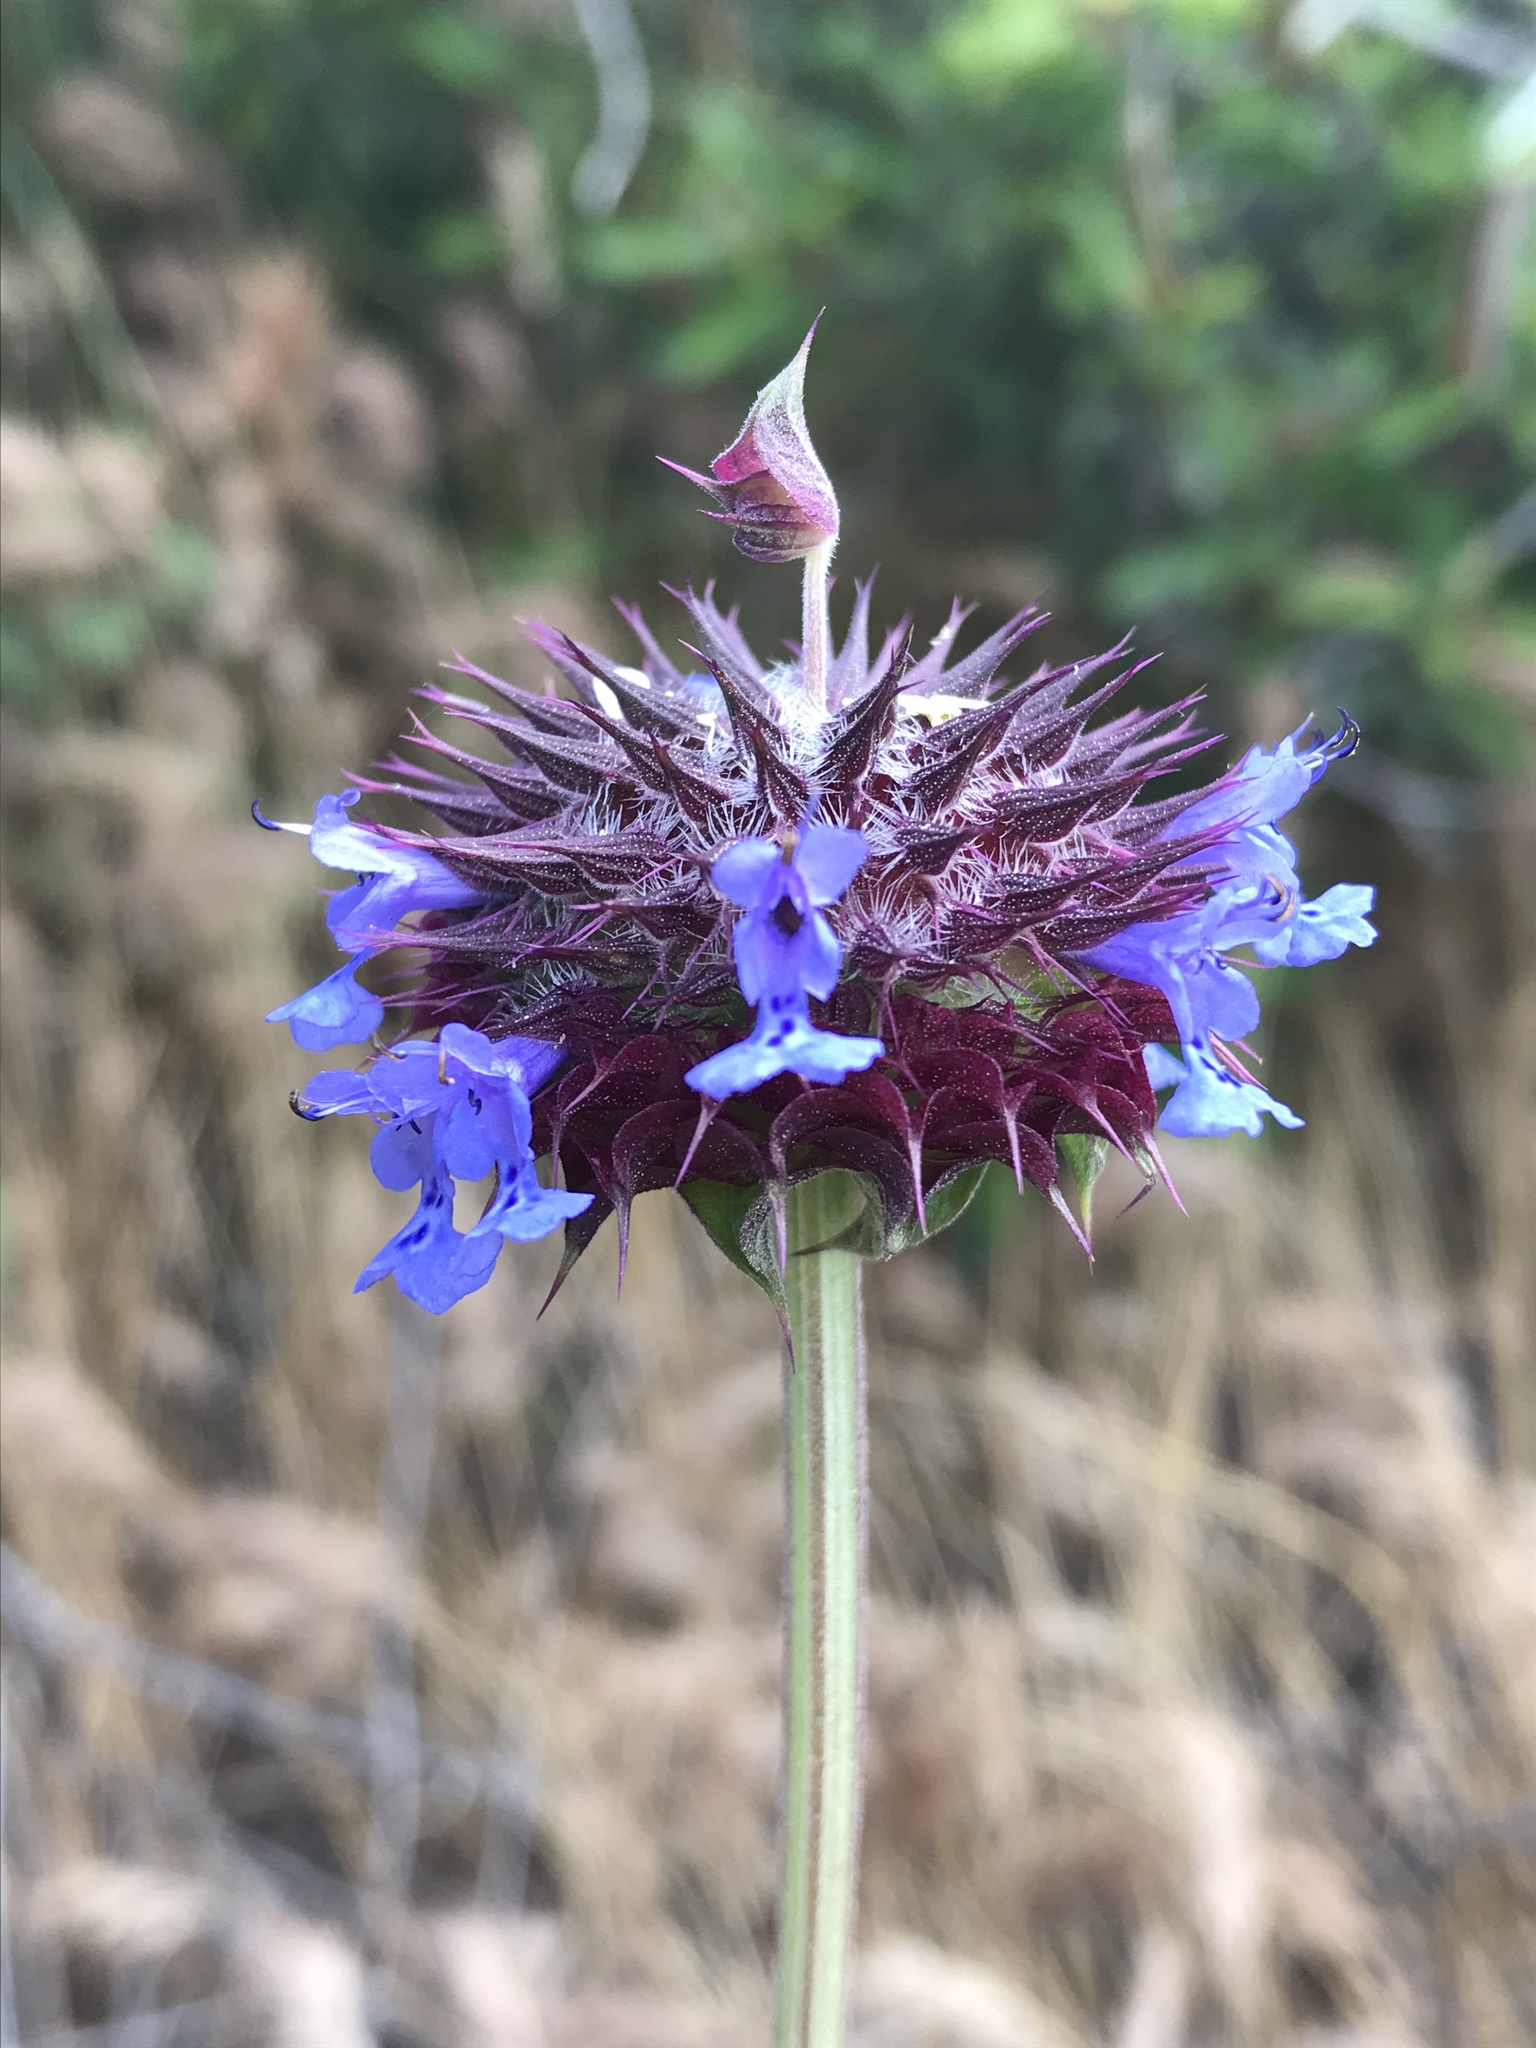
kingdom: Plantae
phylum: Tracheophyta
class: Magnoliopsida
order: Lamiales
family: Lamiaceae
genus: Salvia
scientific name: Salvia columbariae
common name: Chia
